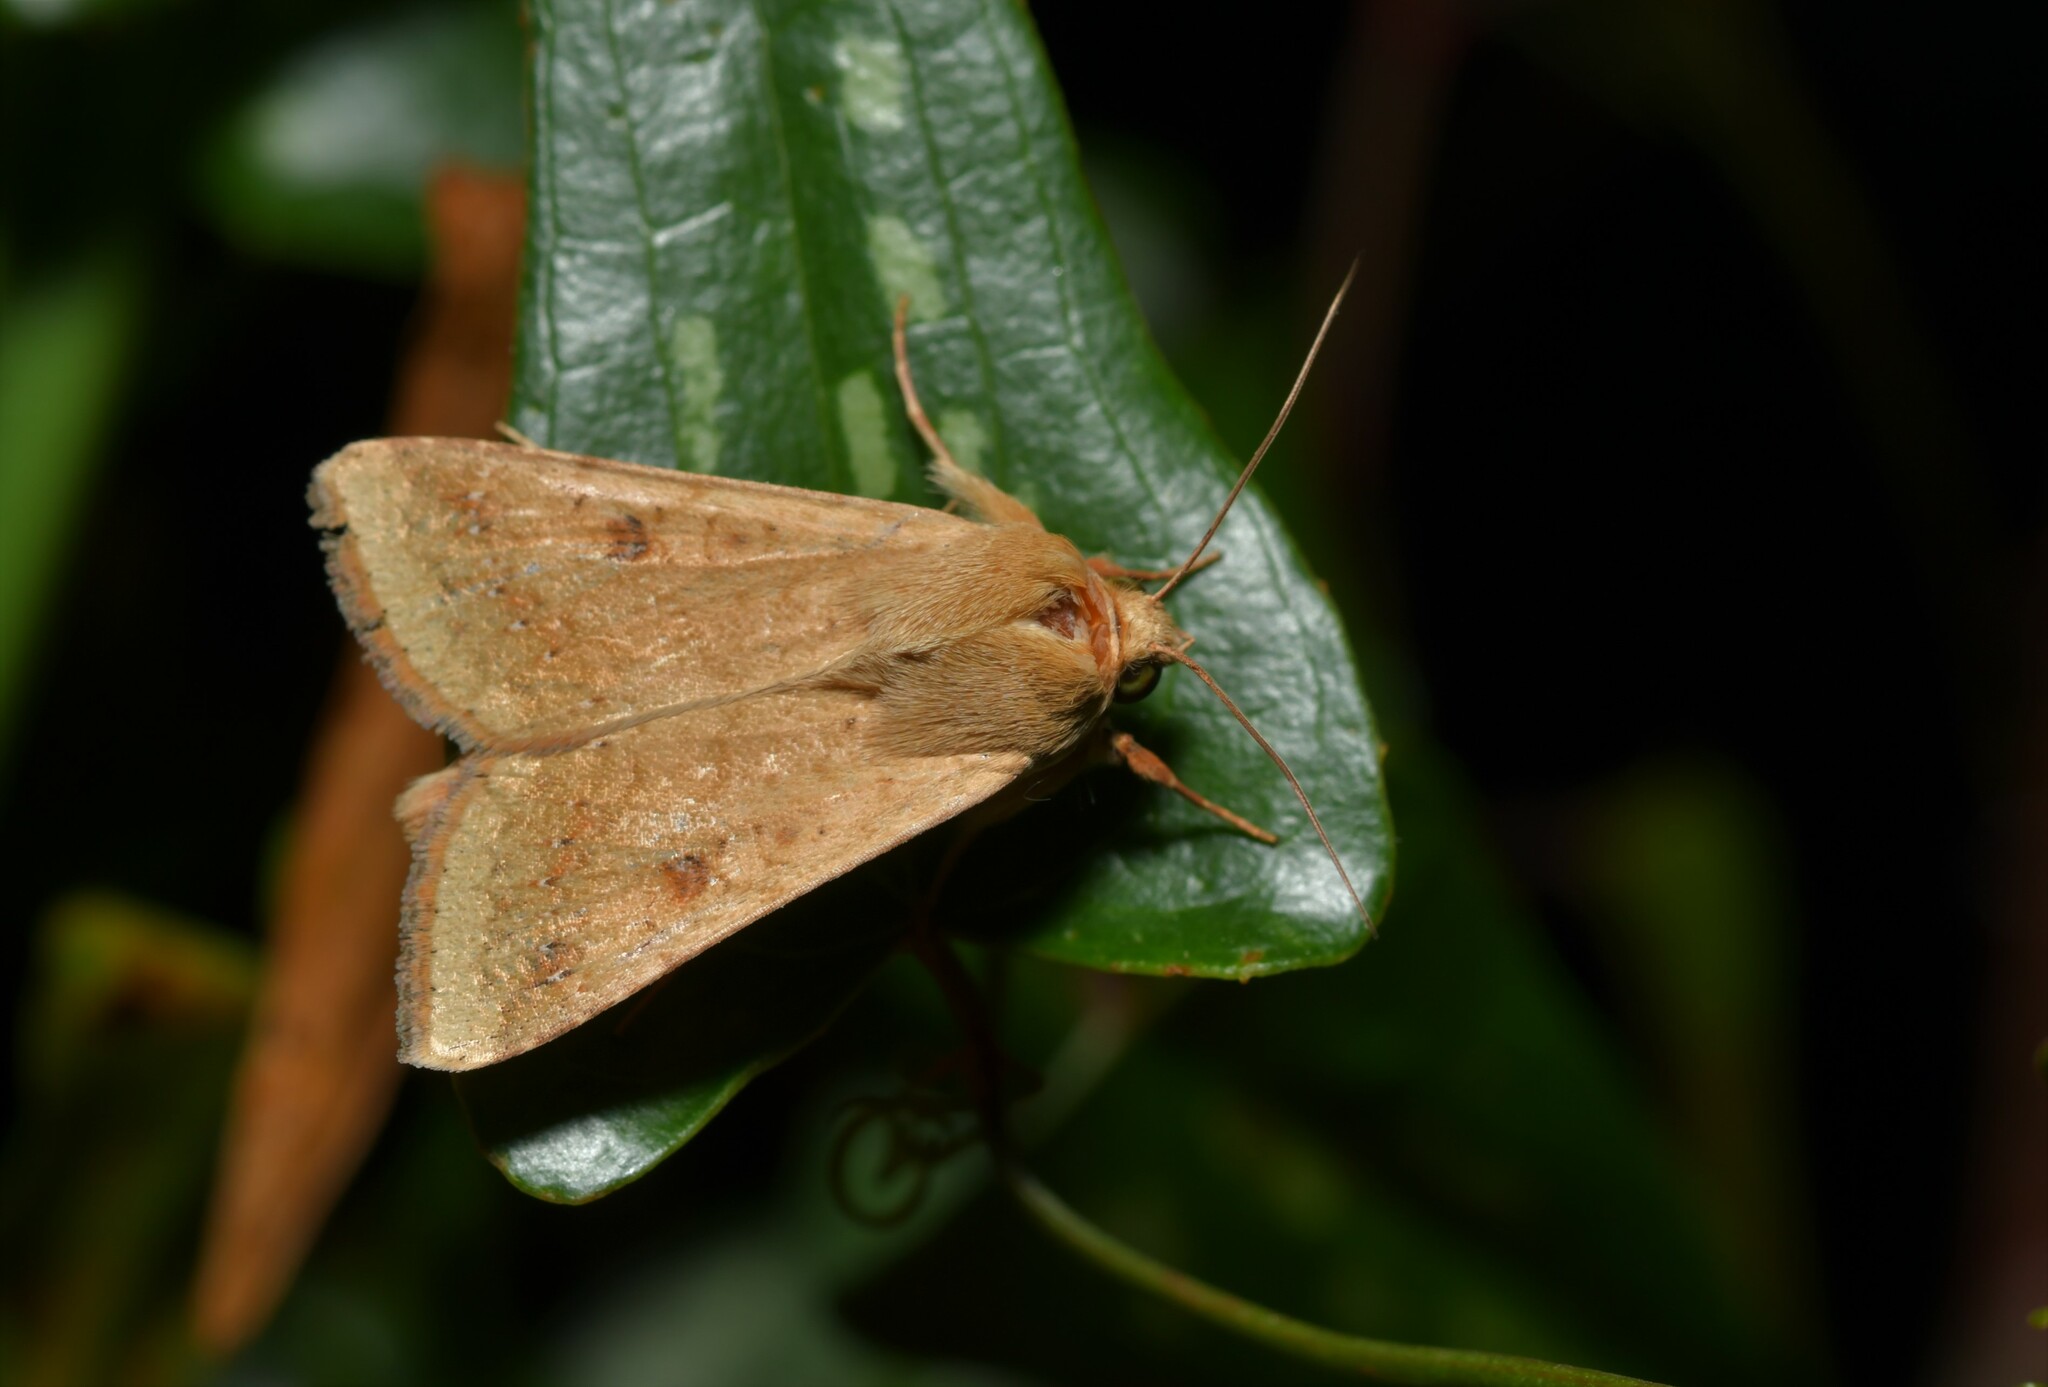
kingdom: Animalia
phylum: Arthropoda
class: Insecta
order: Lepidoptera
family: Noctuidae
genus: Helicoverpa
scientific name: Helicoverpa armigera
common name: Cotton bollworm
